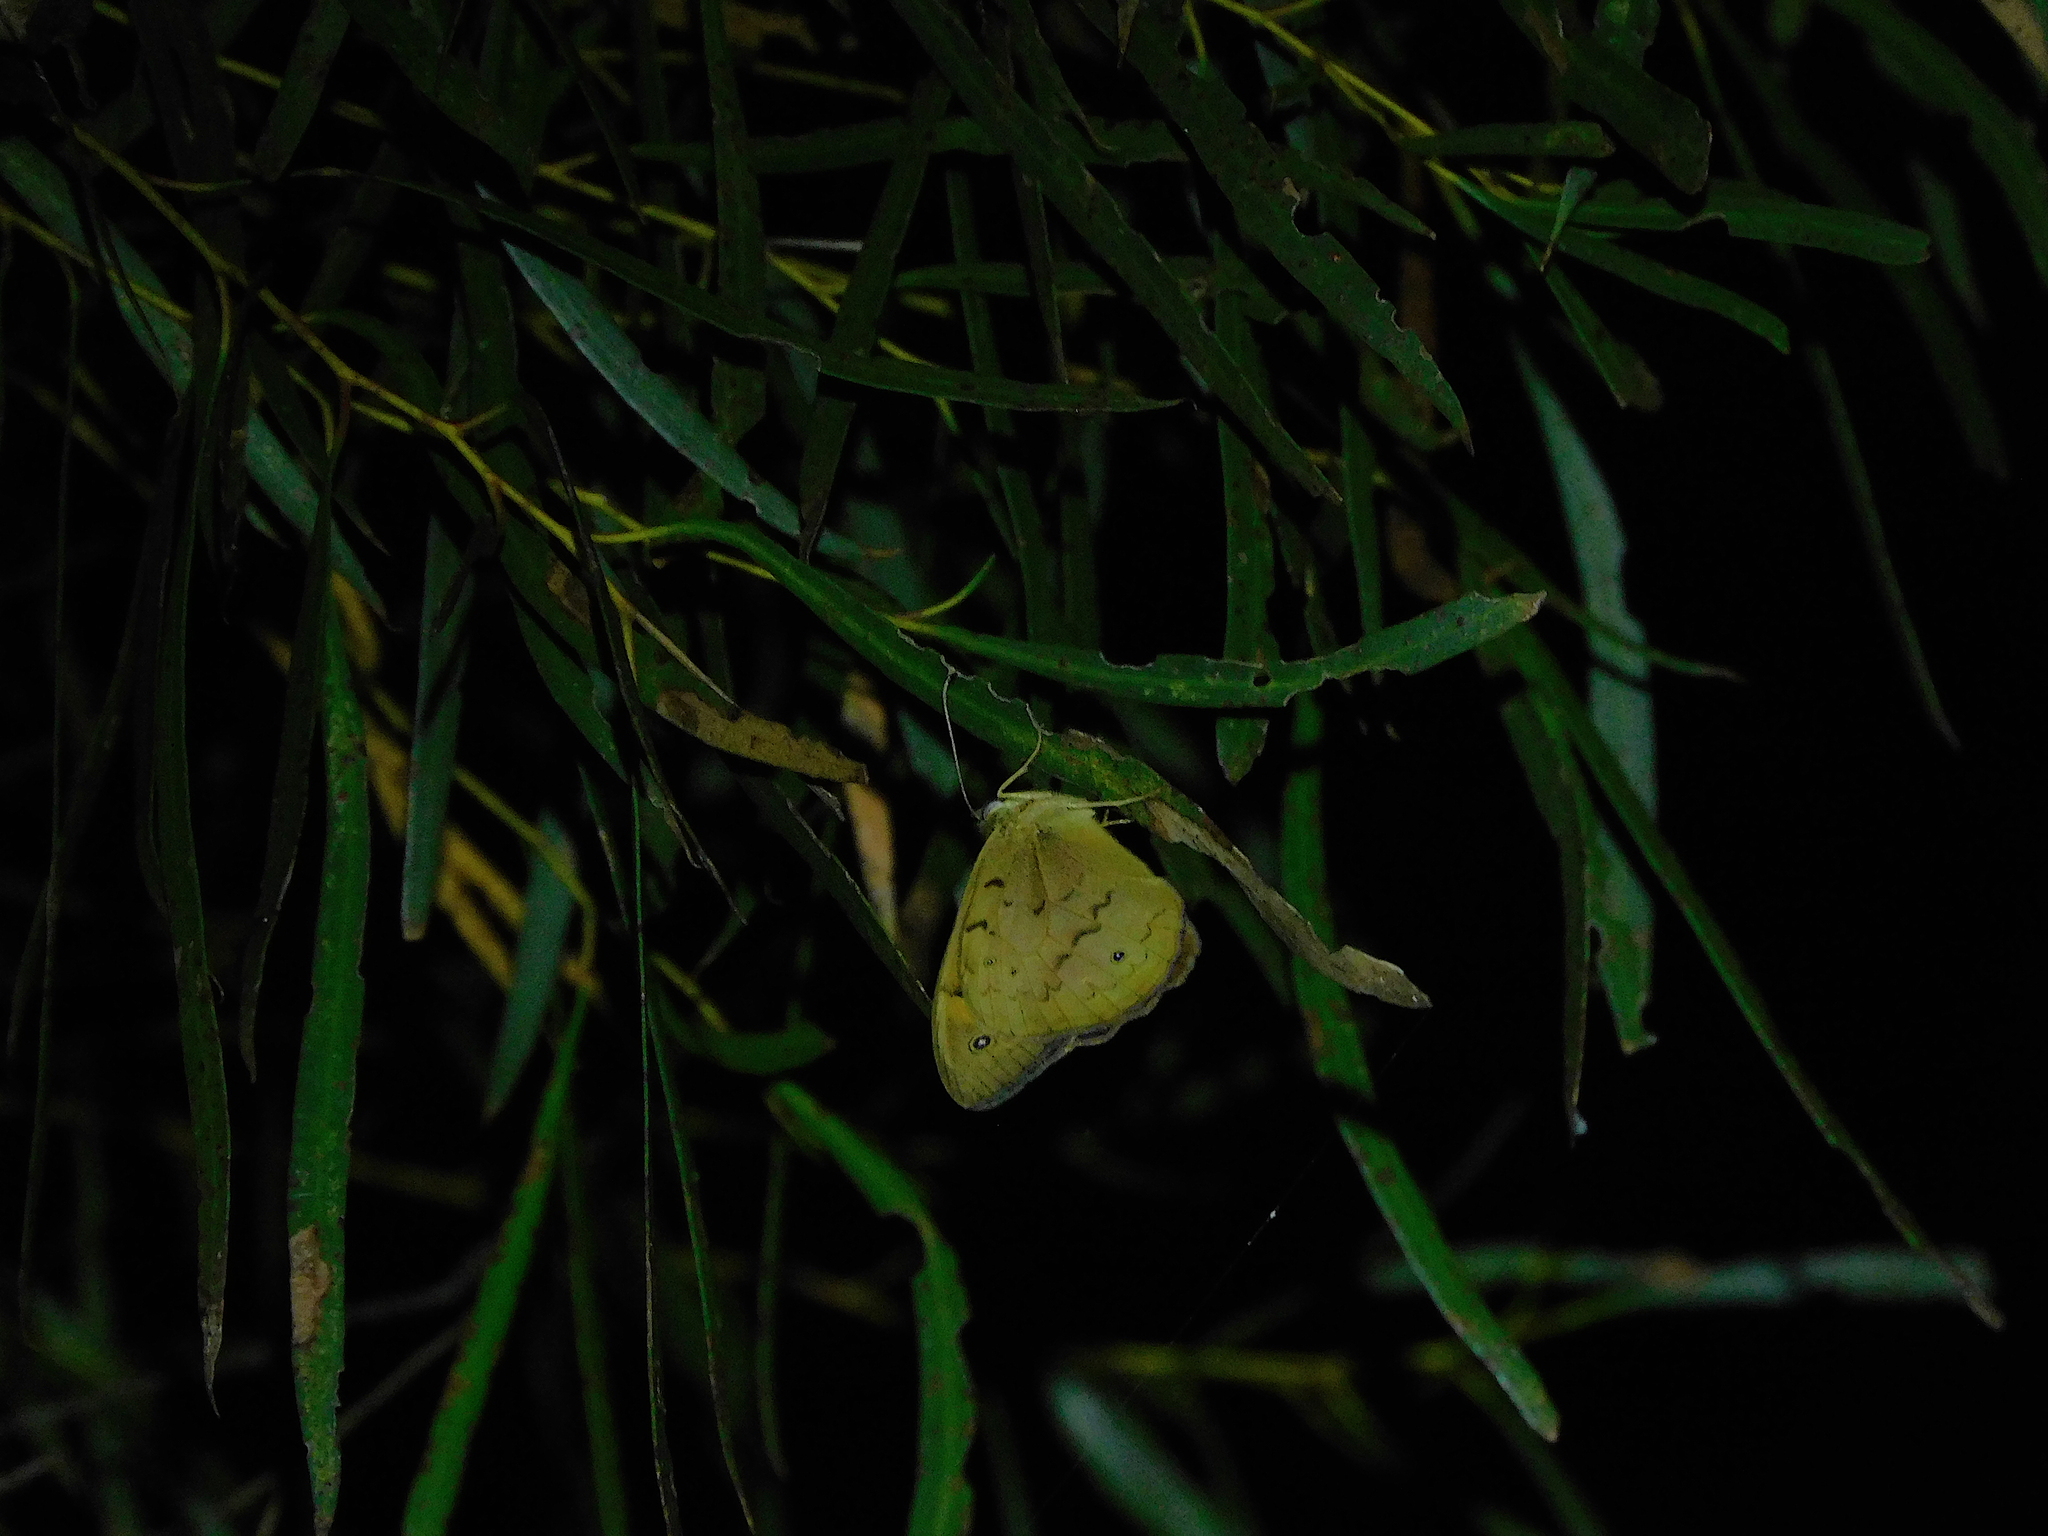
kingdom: Animalia
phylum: Arthropoda
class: Insecta
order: Lepidoptera
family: Nymphalidae
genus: Heteronympha
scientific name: Heteronympha merope
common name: Common brown
